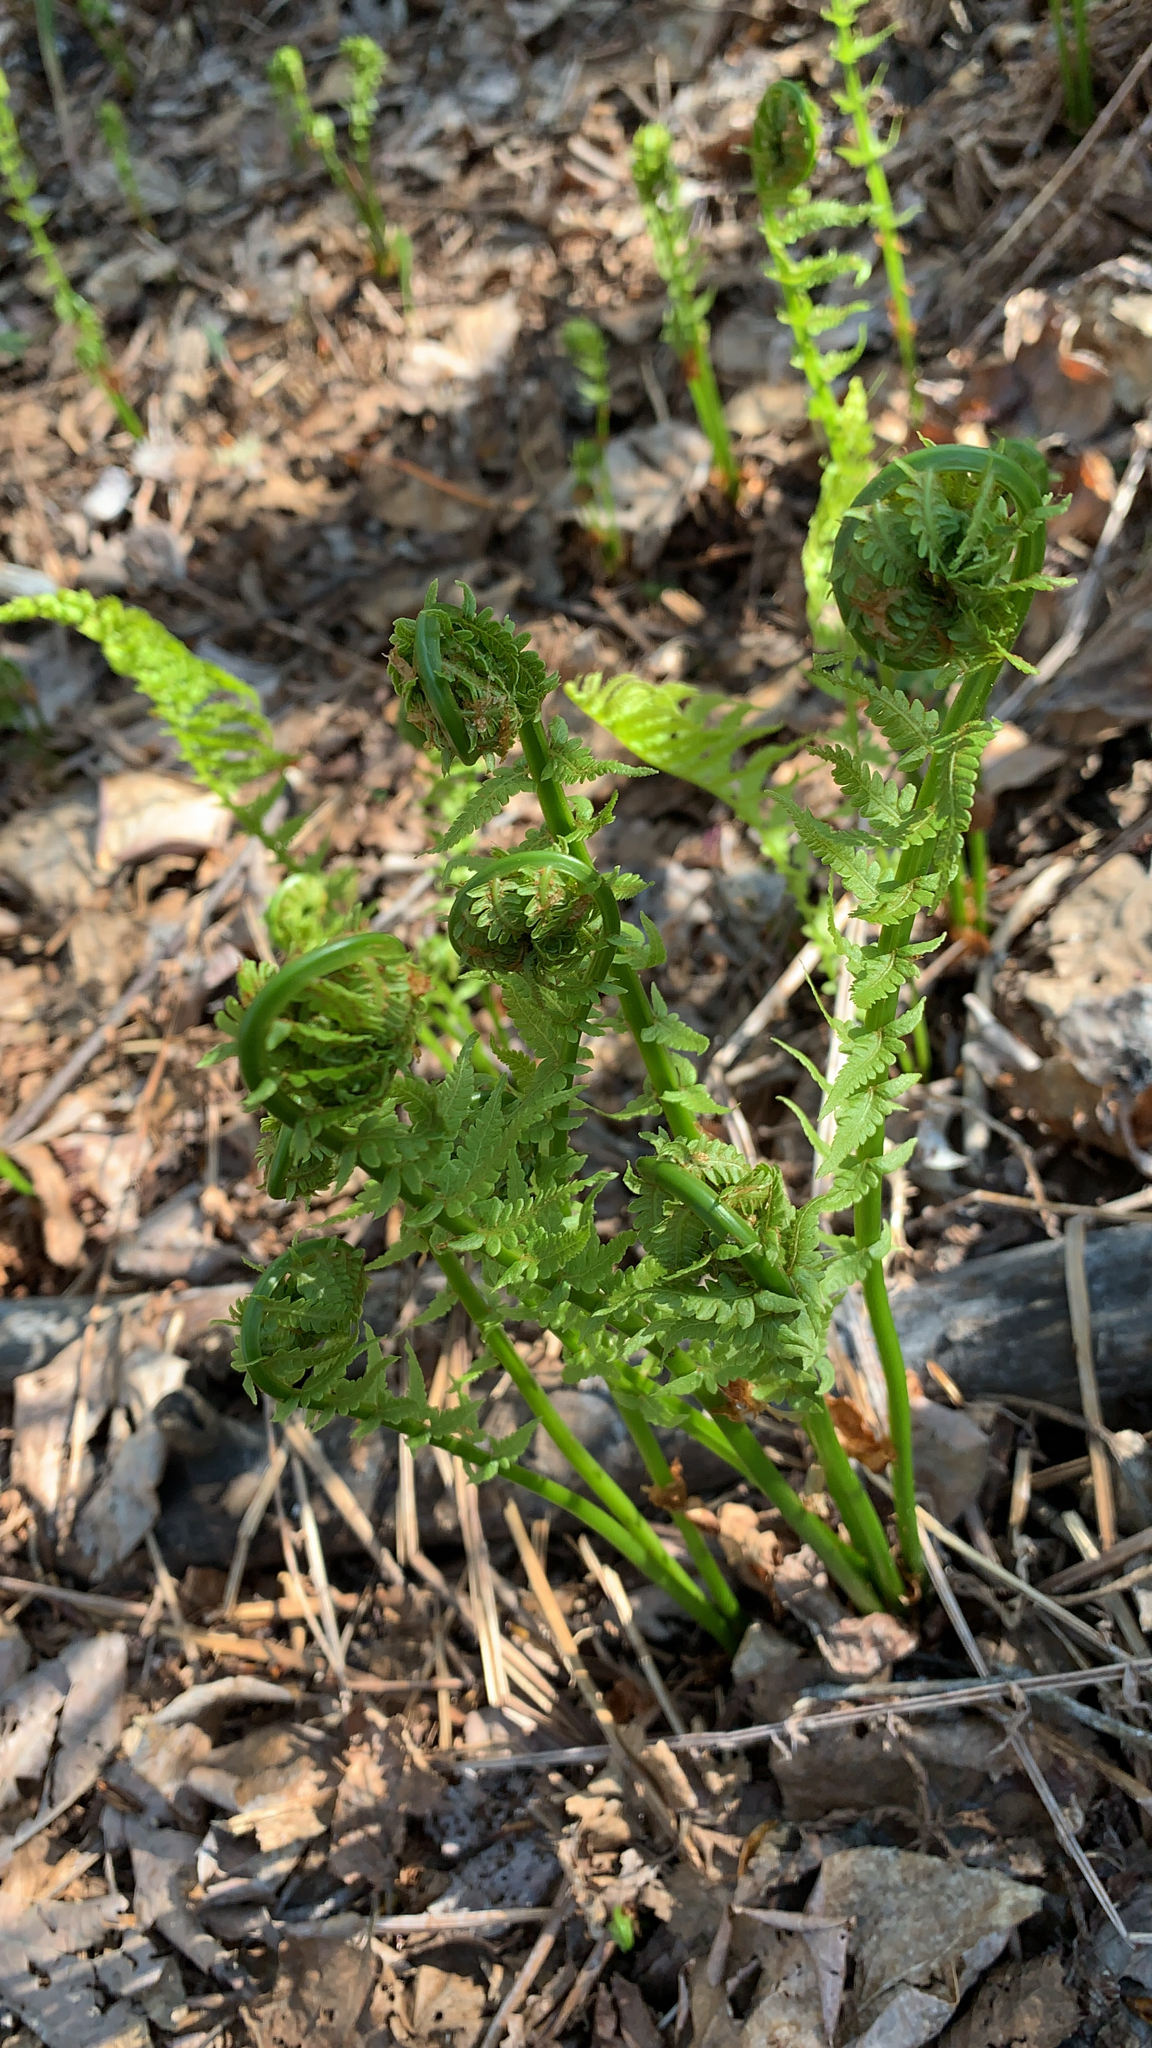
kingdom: Plantae
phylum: Tracheophyta
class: Polypodiopsida
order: Polypodiales
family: Onocleaceae
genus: Matteuccia
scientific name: Matteuccia struthiopteris
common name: Ostrich fern
